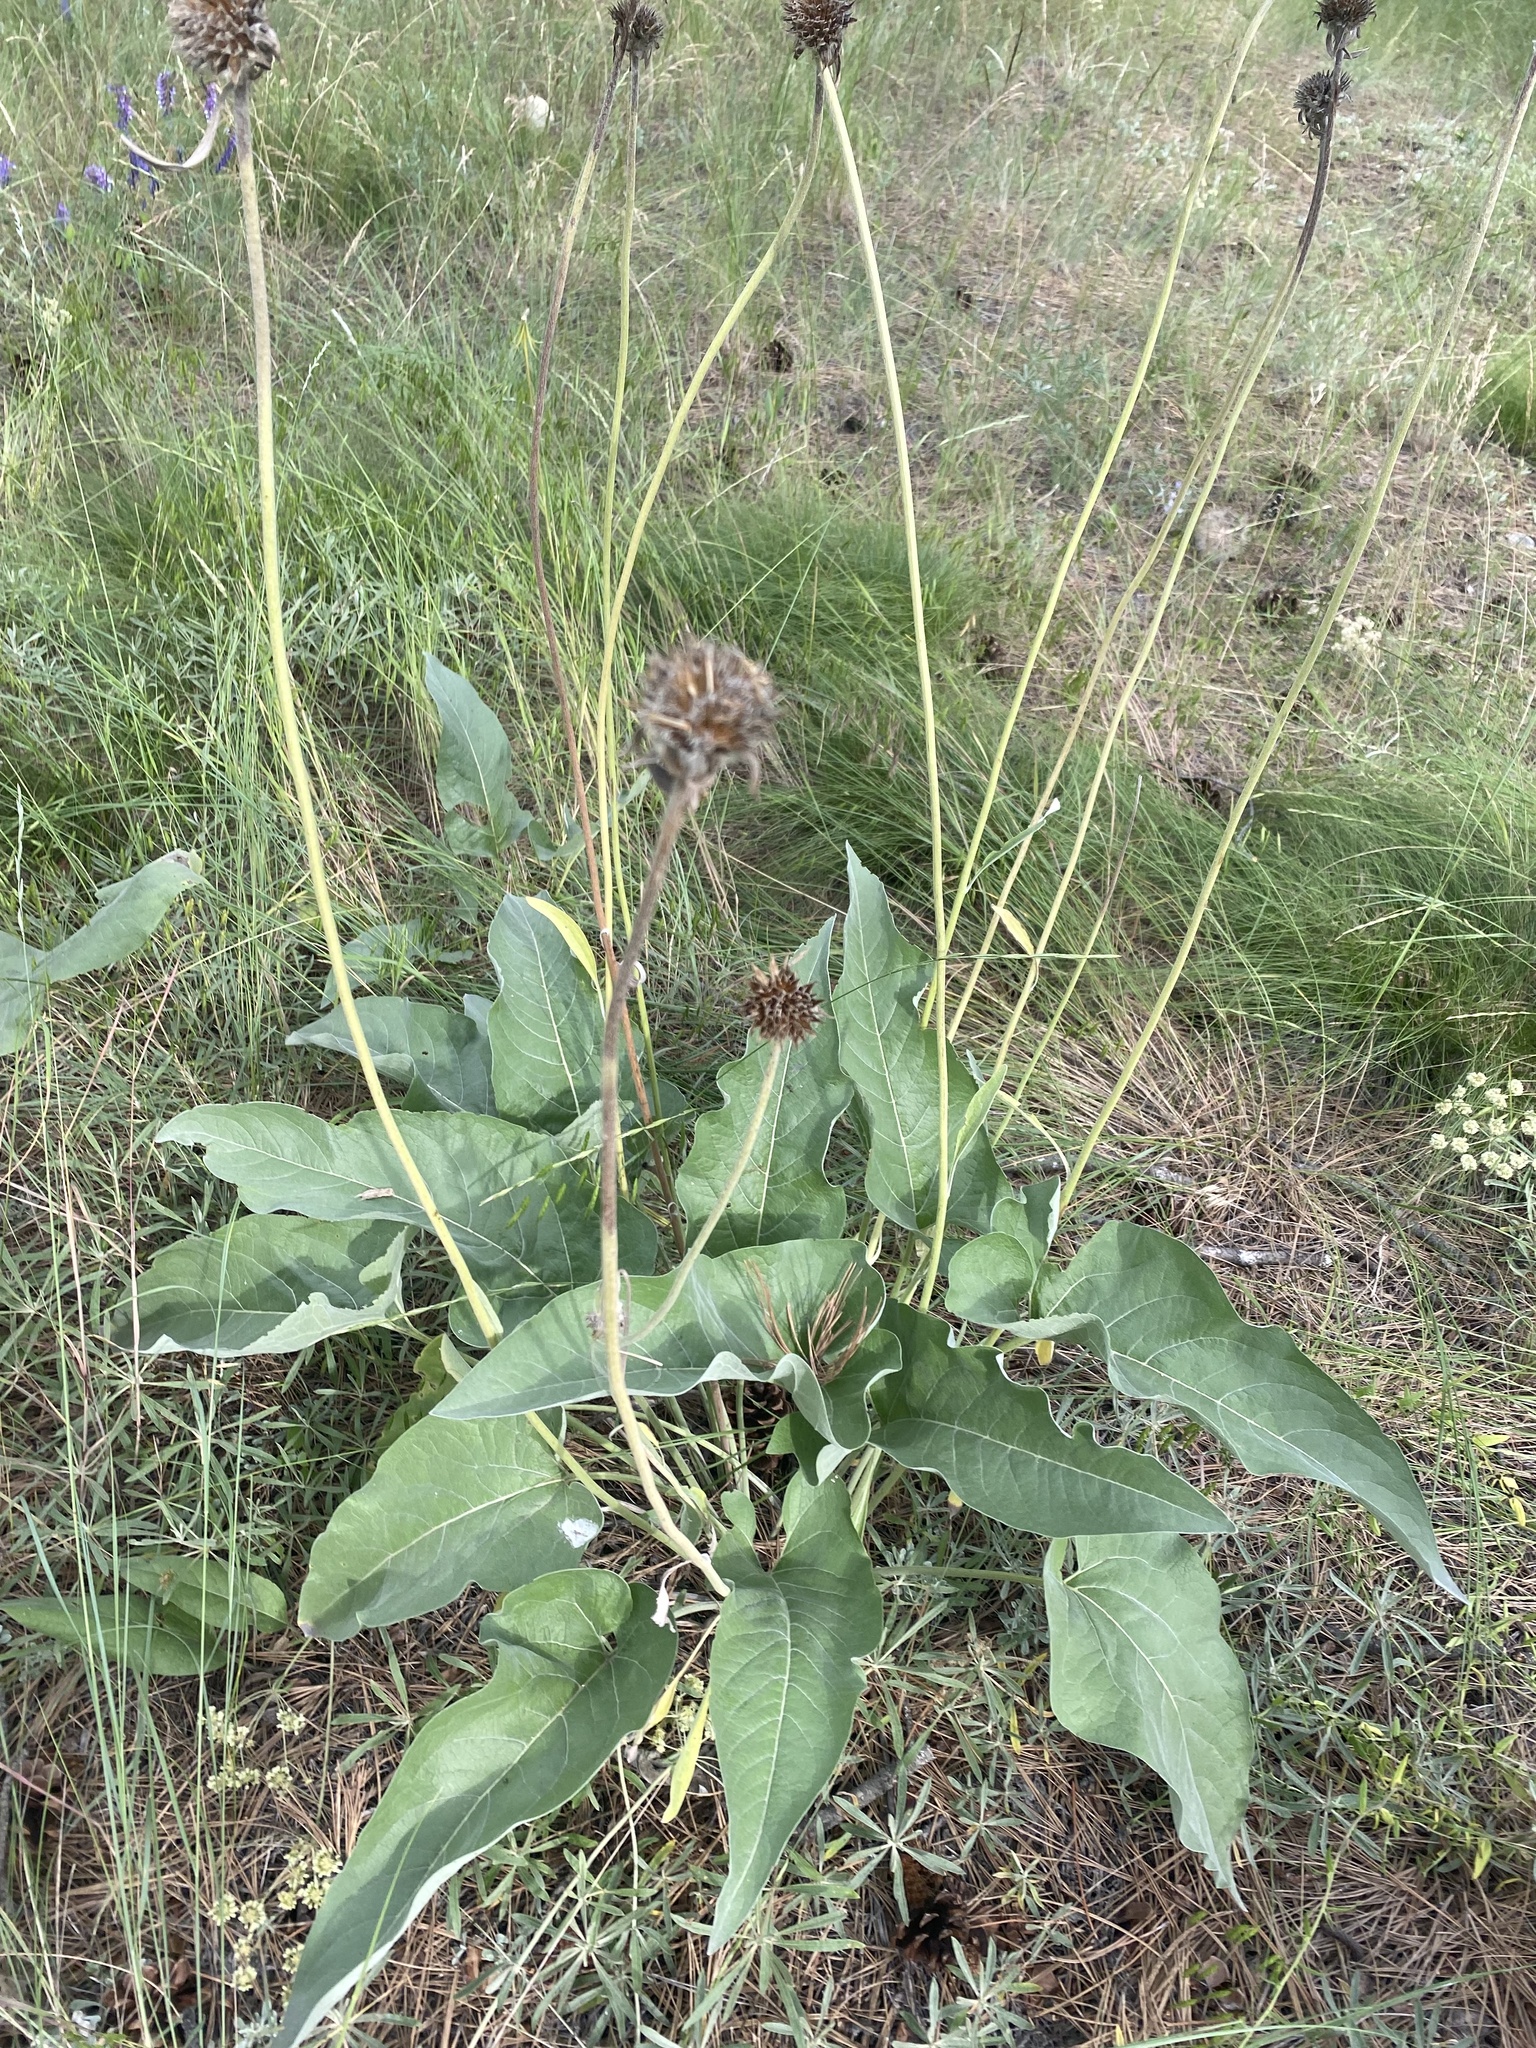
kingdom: Plantae
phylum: Tracheophyta
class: Magnoliopsida
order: Asterales
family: Asteraceae
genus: Wyethia
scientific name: Wyethia sagittata
